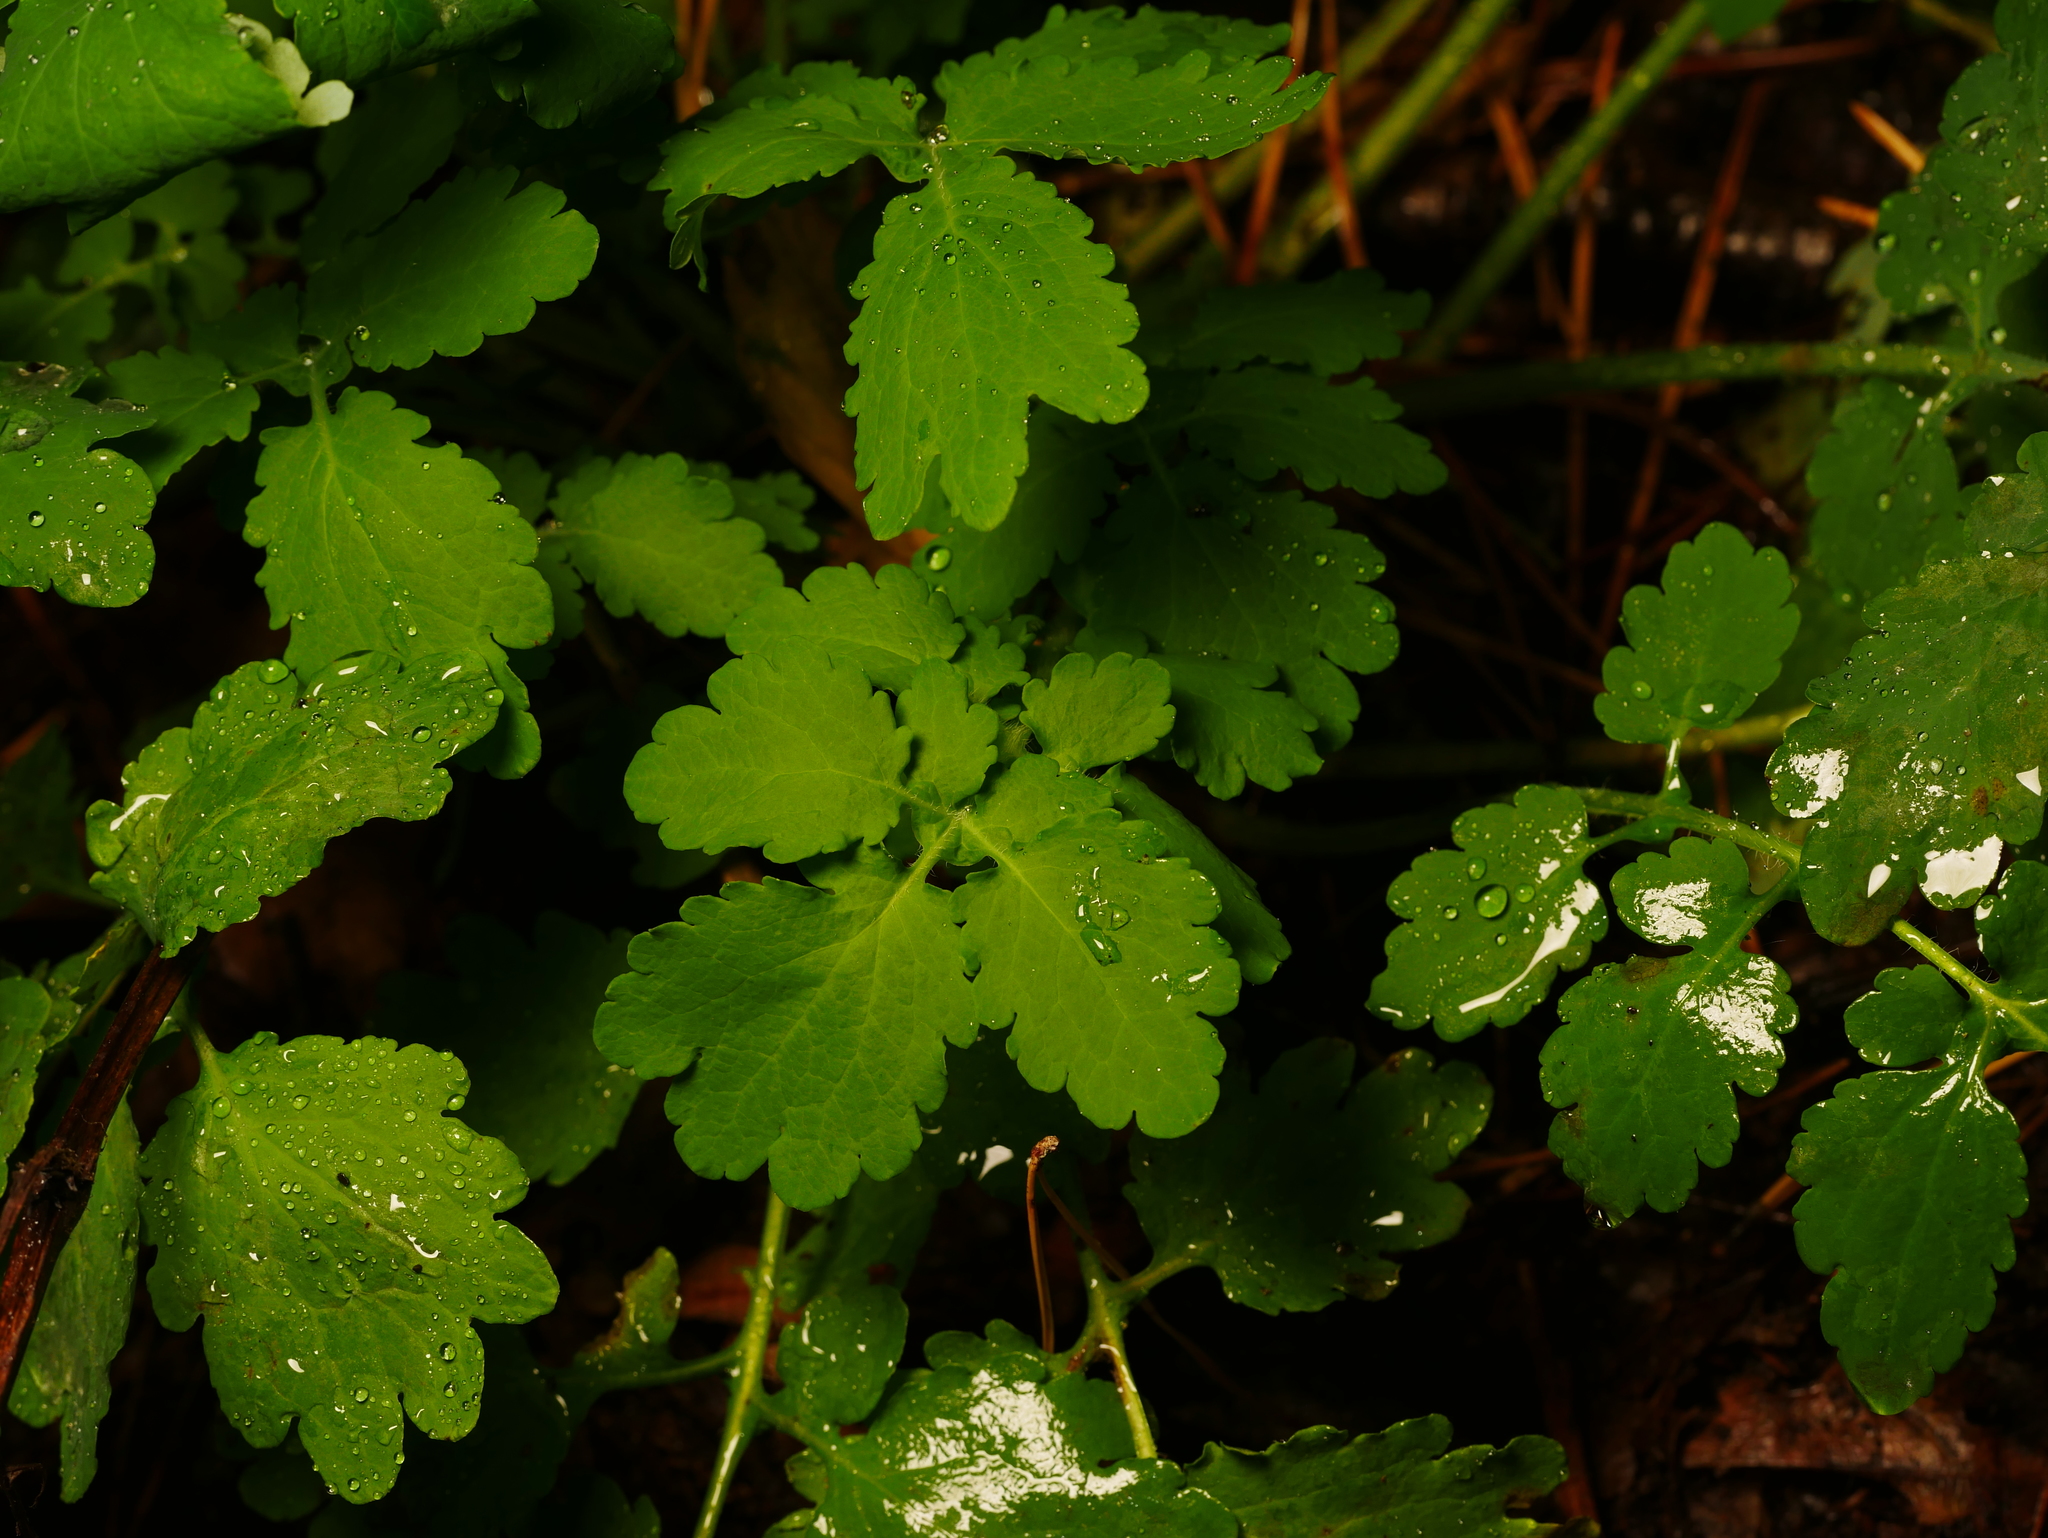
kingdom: Plantae
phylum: Tracheophyta
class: Magnoliopsida
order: Ranunculales
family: Papaveraceae
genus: Chelidonium
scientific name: Chelidonium majus
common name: Greater celandine
